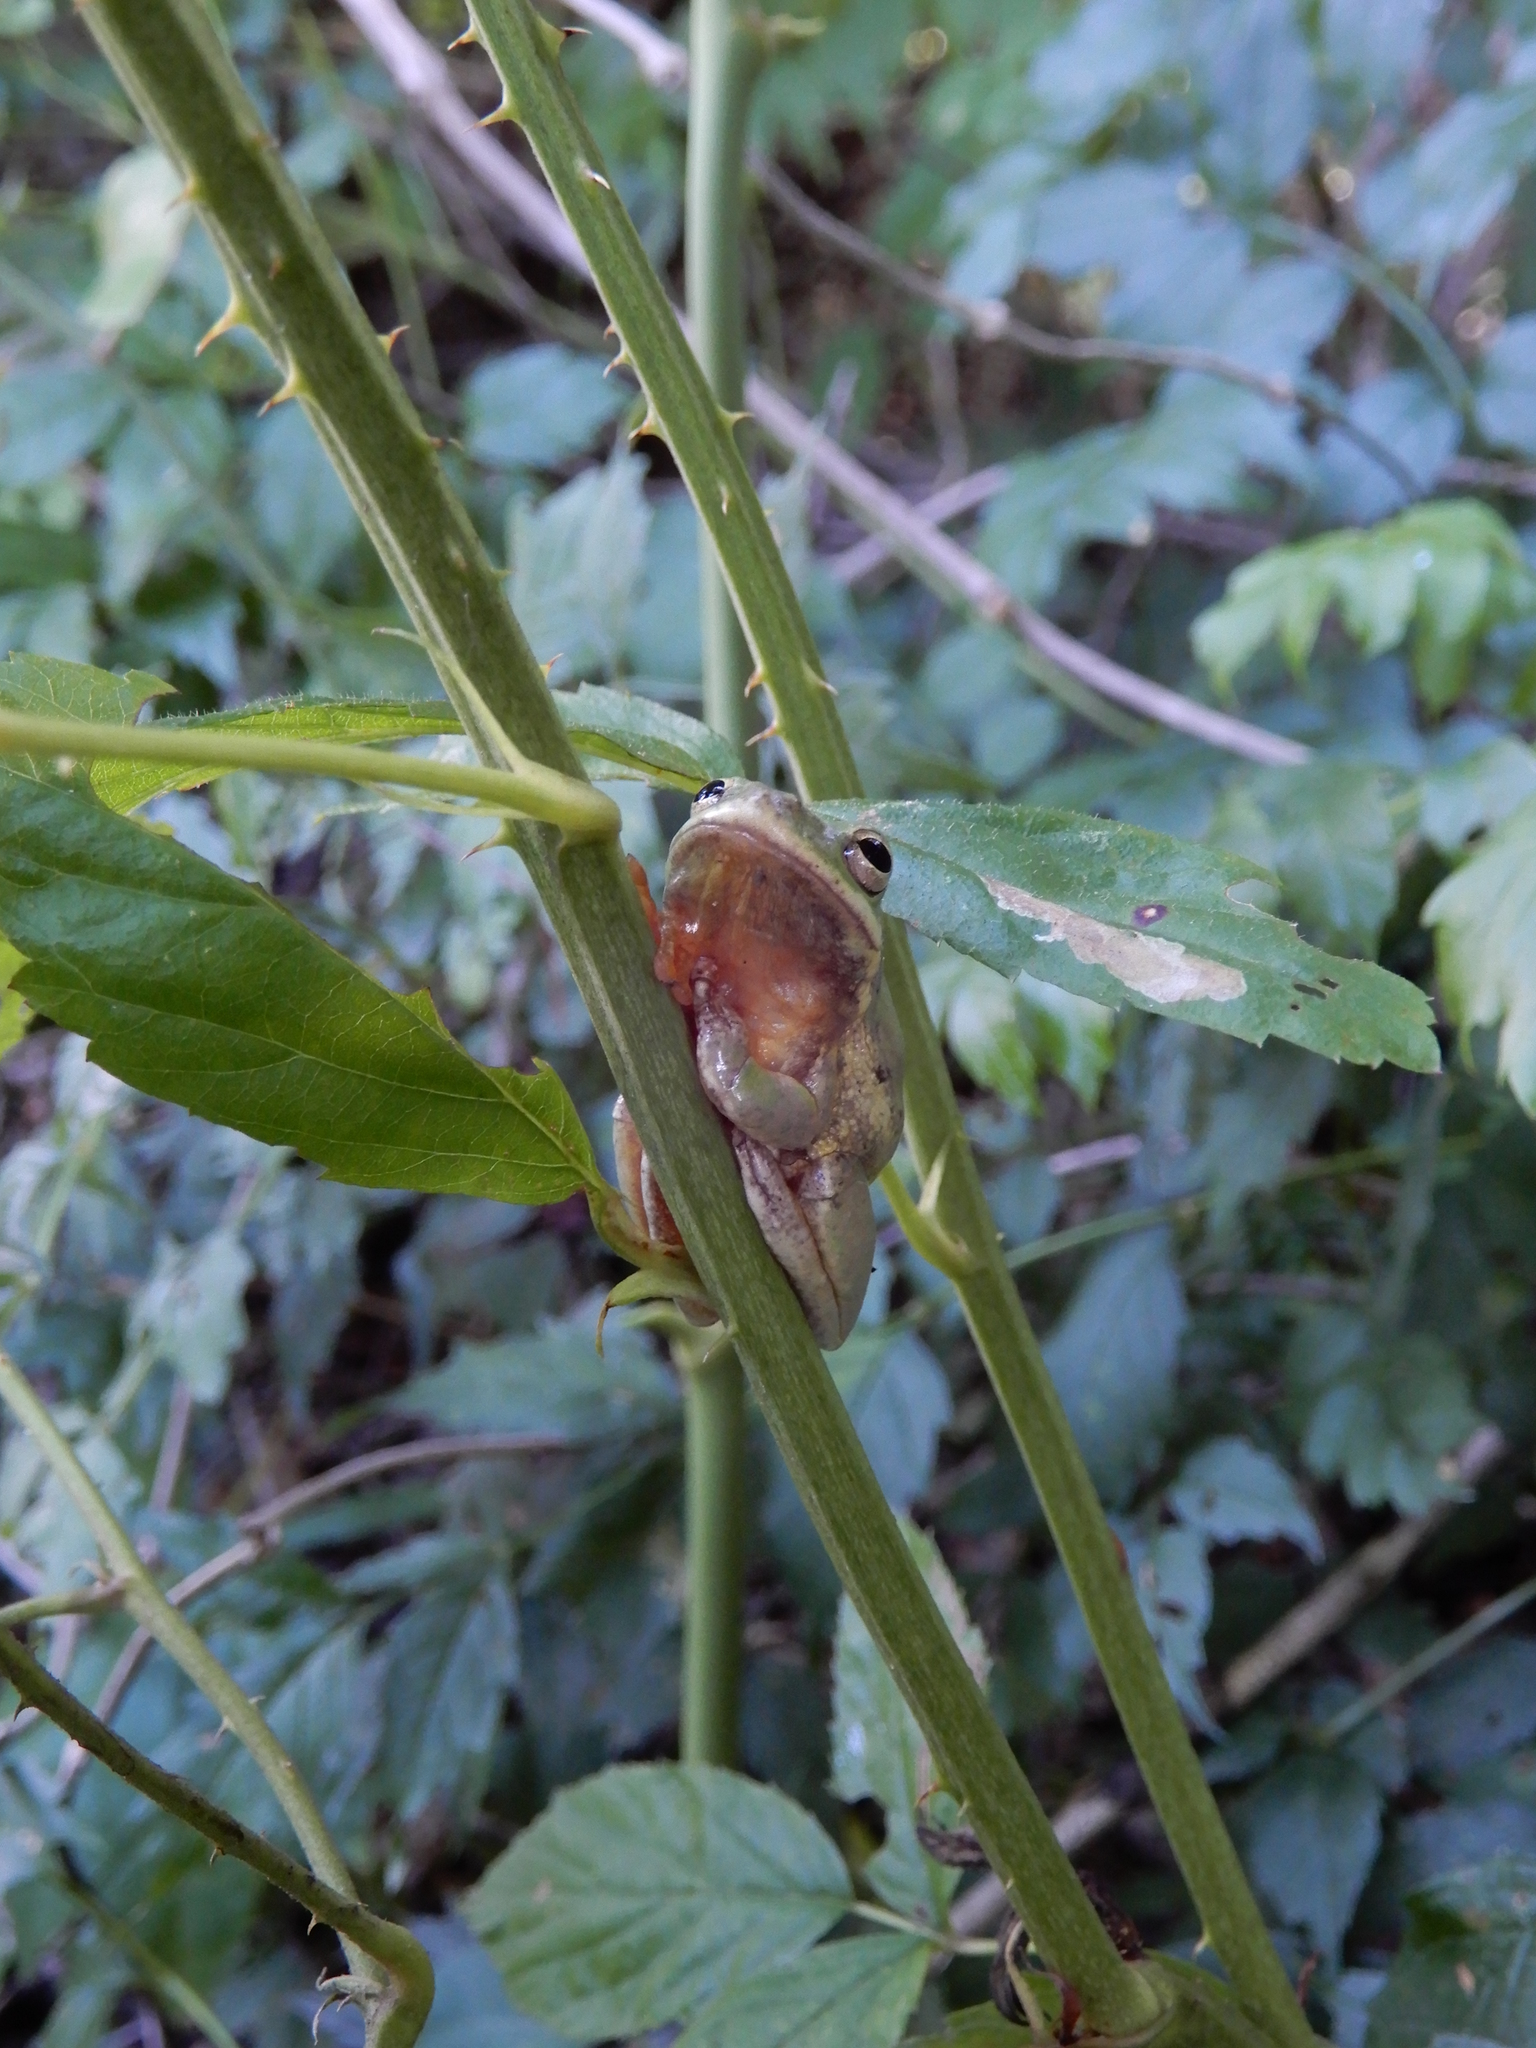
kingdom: Animalia
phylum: Chordata
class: Amphibia
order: Anura
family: Hylidae
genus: Dryophytes
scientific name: Dryophytes squirellus
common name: Squirrel treefrog
